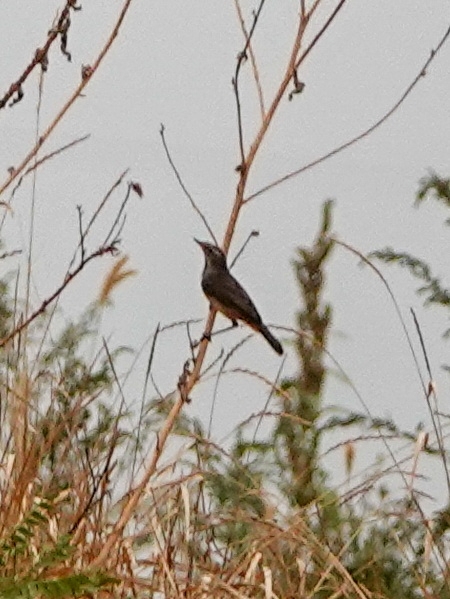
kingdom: Animalia
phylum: Chordata
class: Aves
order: Passeriformes
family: Muscicapidae
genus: Luscinia
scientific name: Luscinia svecica
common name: Bluethroat
